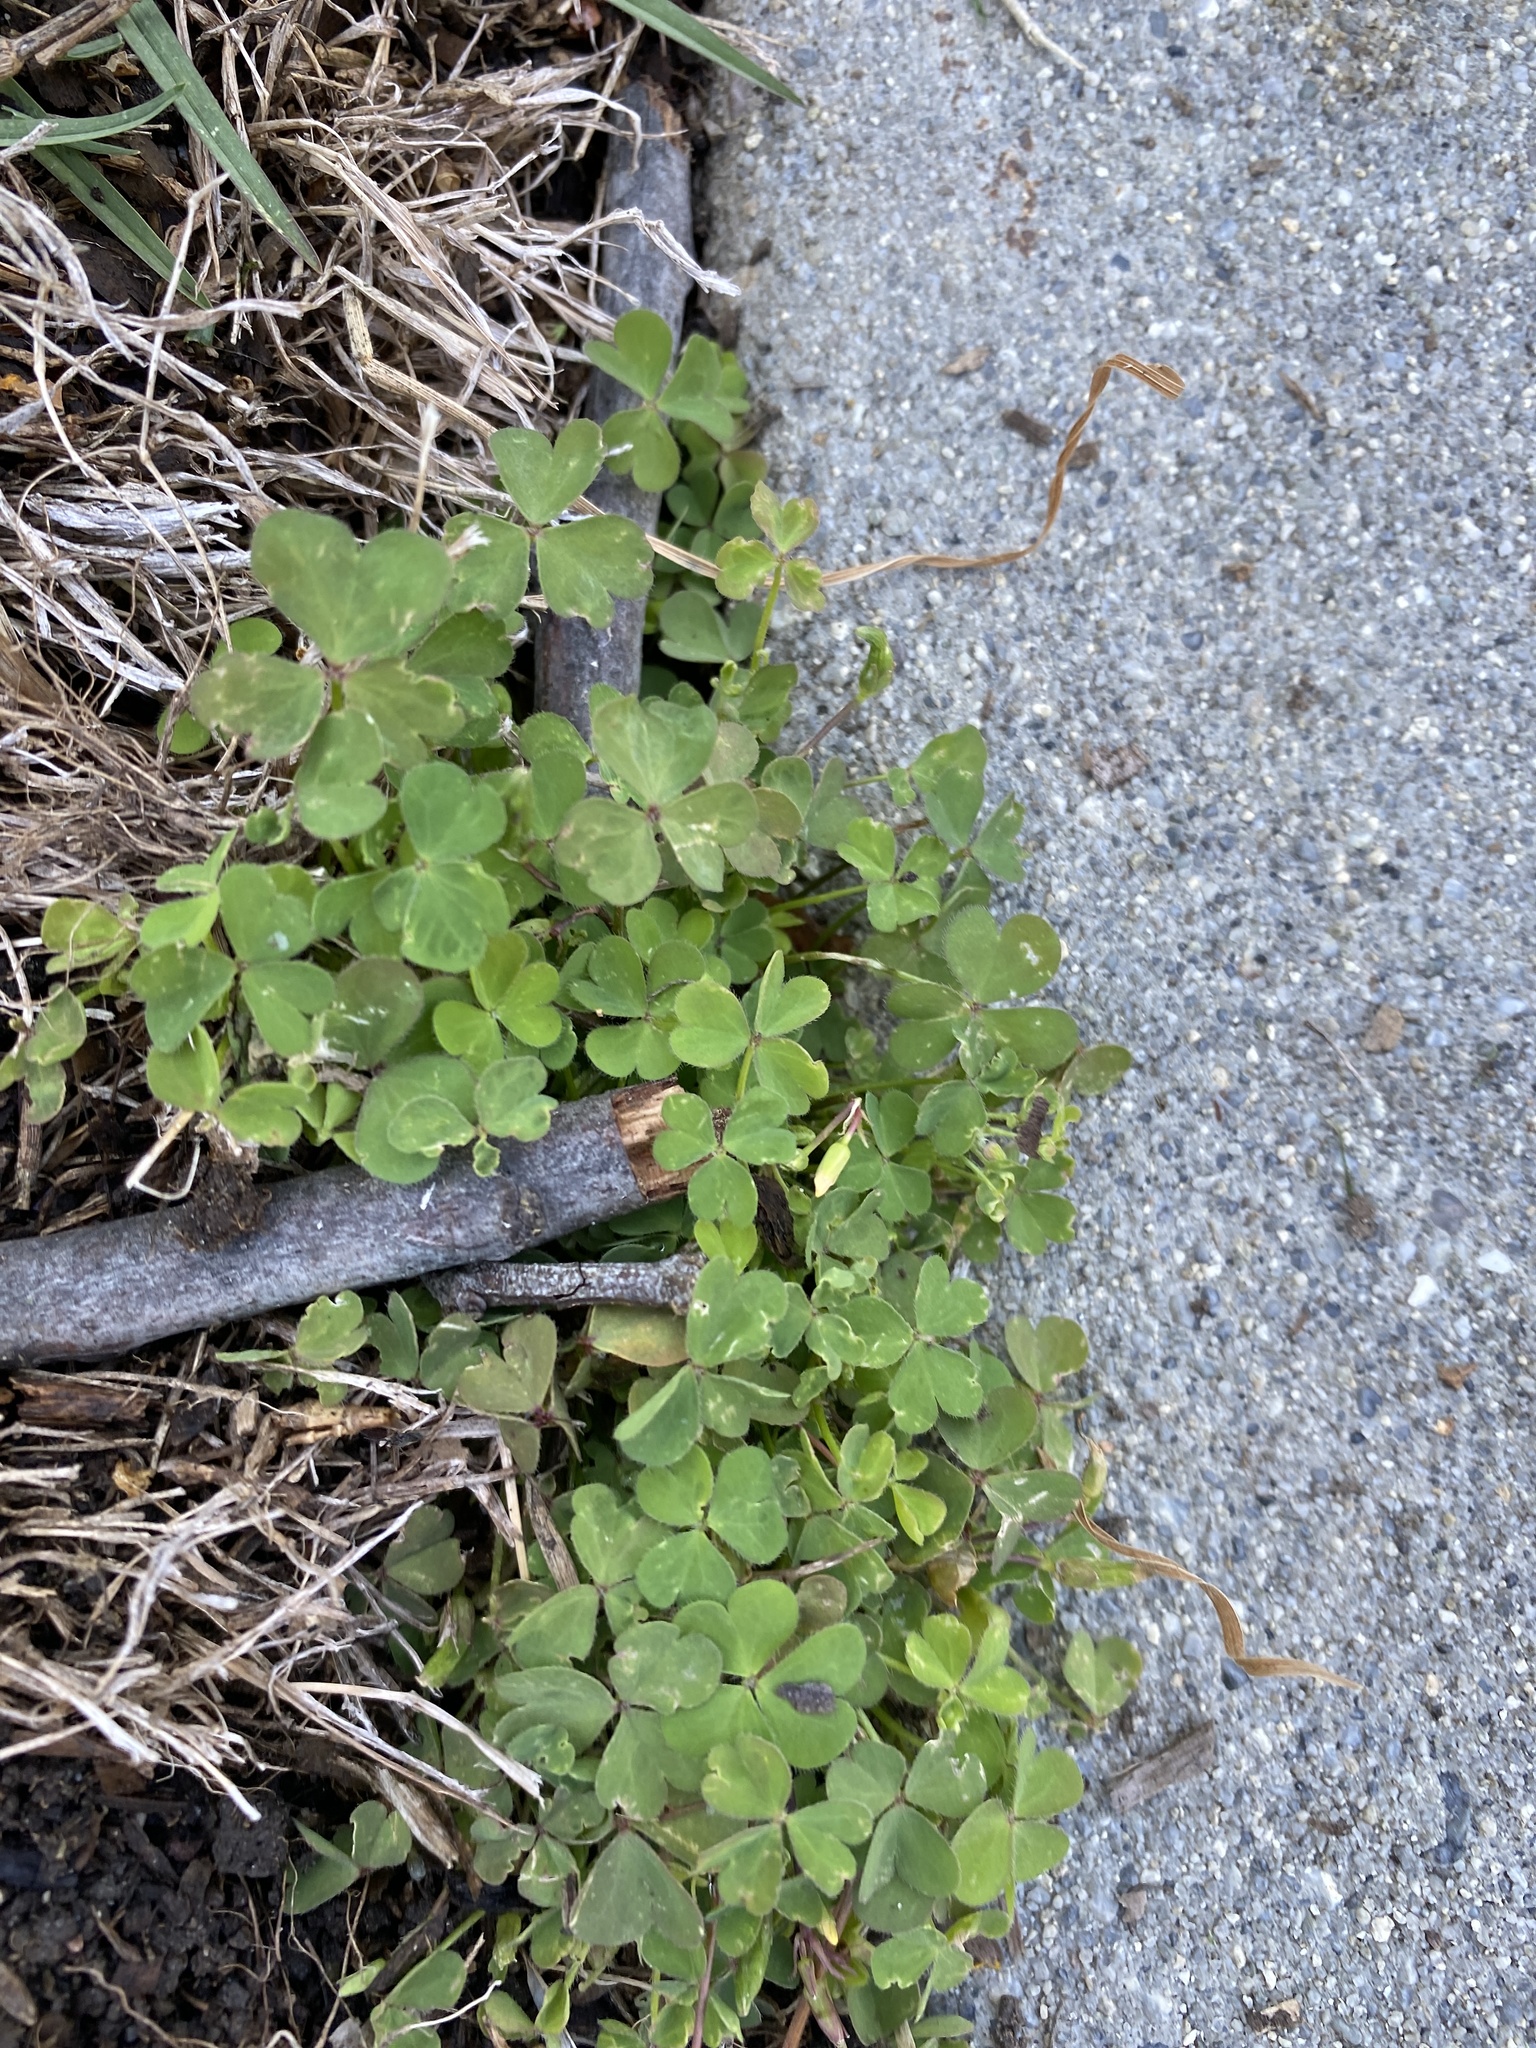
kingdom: Plantae
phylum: Tracheophyta
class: Magnoliopsida
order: Oxalidales
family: Oxalidaceae
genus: Oxalis
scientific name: Oxalis corniculata
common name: Procumbent yellow-sorrel
